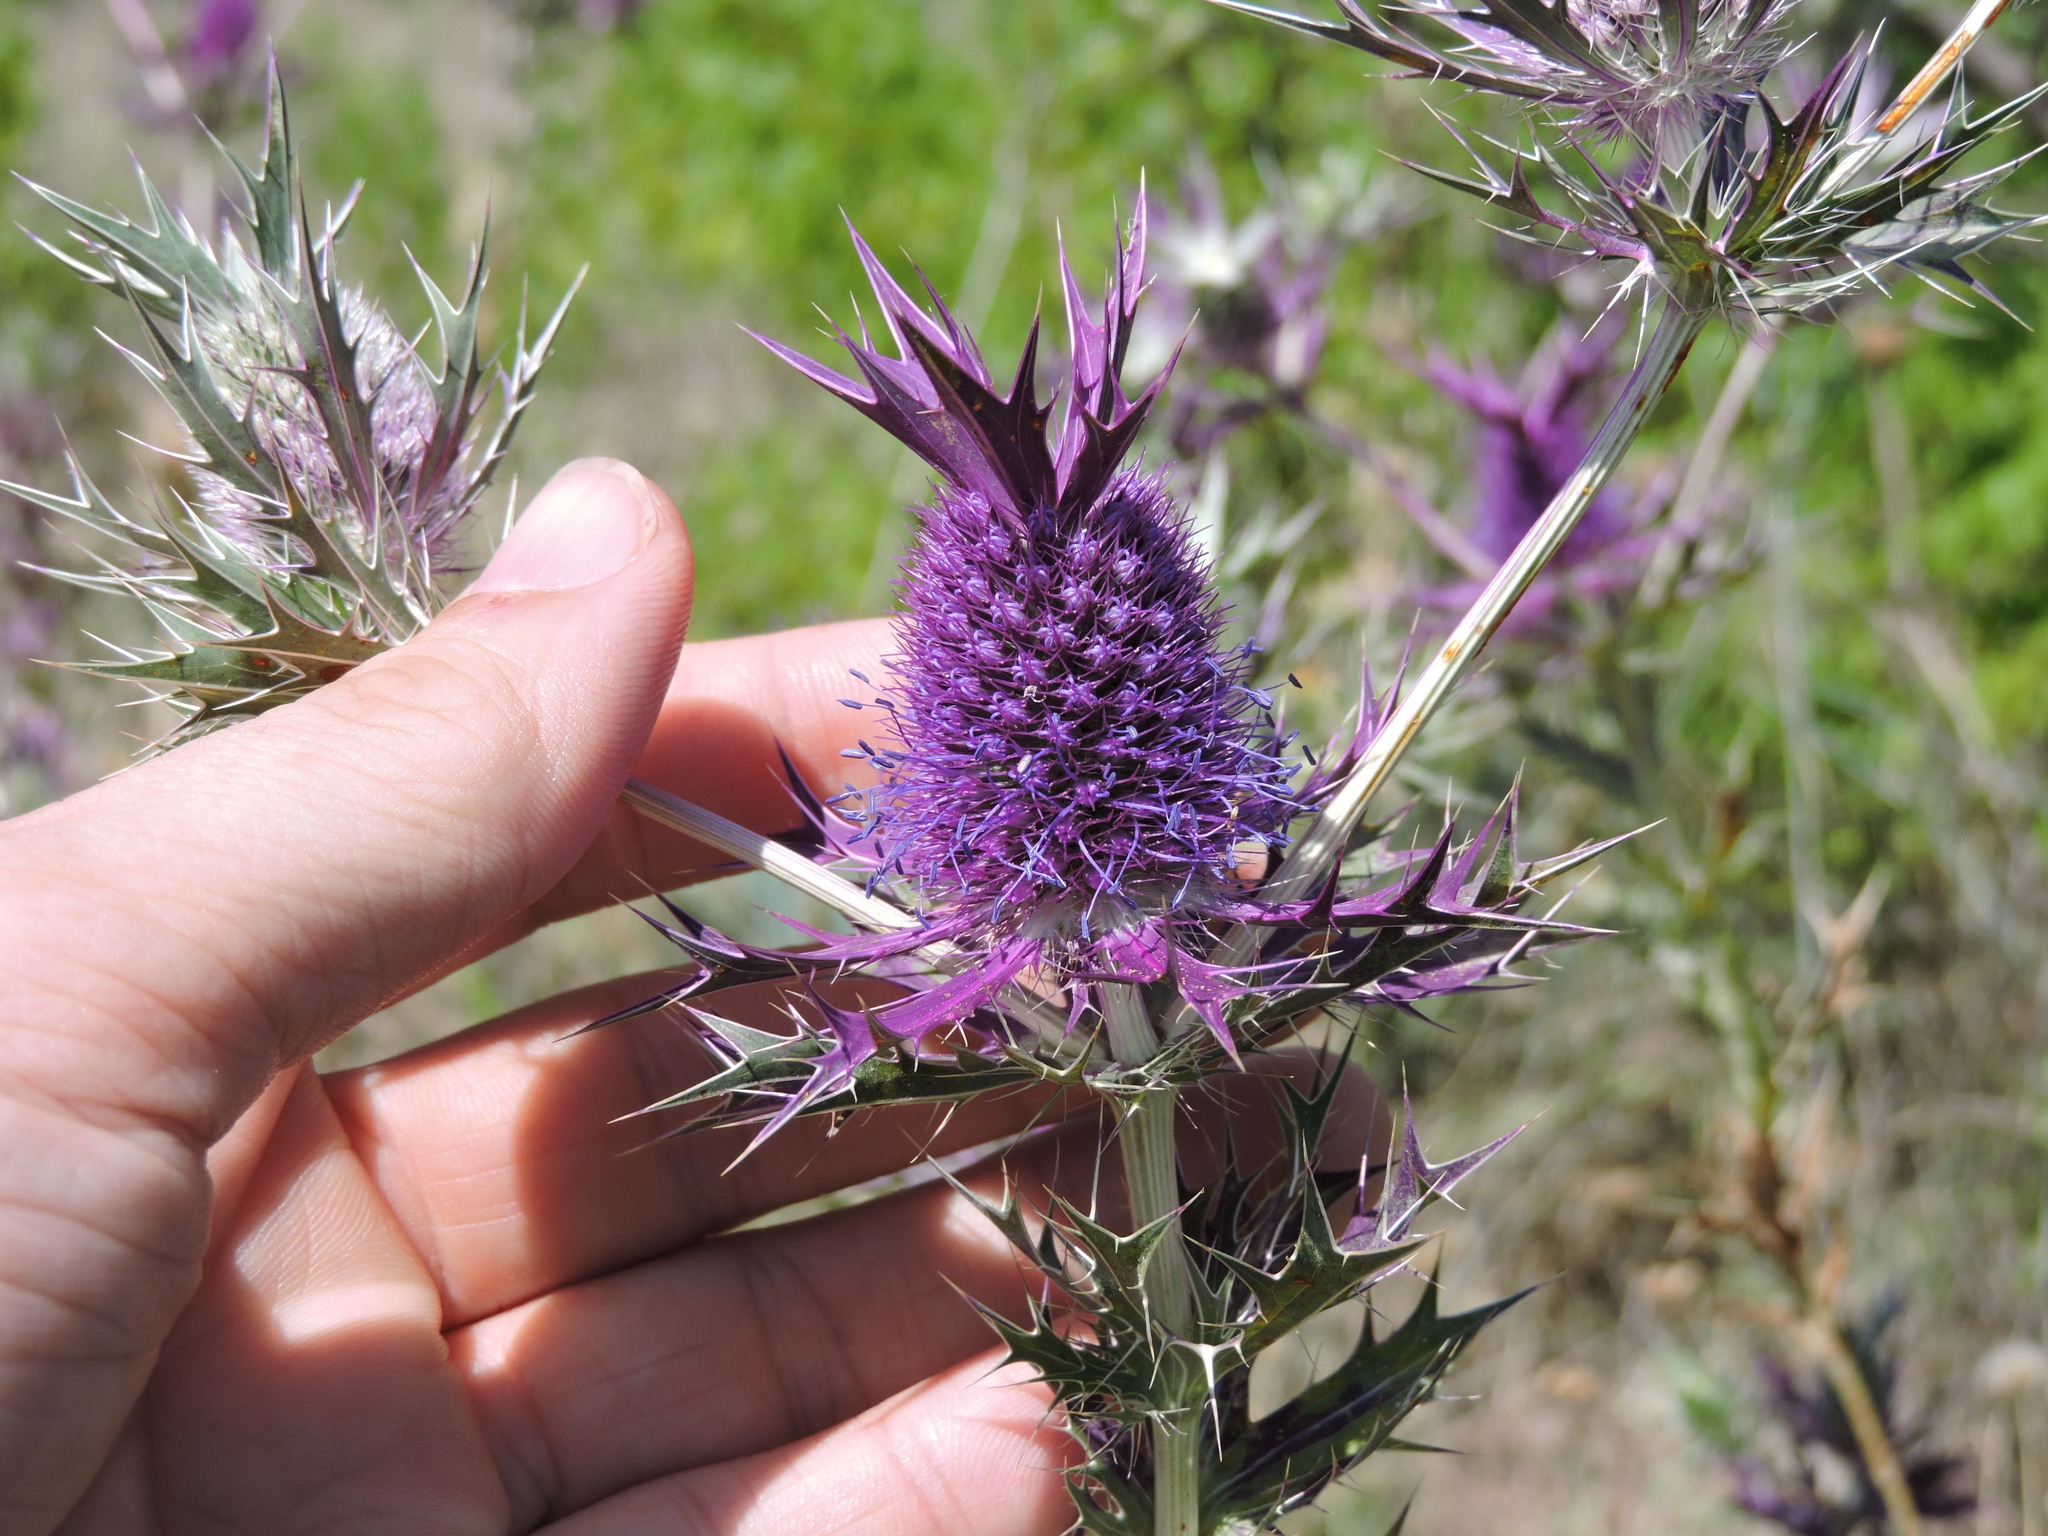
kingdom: Plantae
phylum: Tracheophyta
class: Magnoliopsida
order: Apiales
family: Apiaceae
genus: Eryngium
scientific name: Eryngium leavenworthii
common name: Leavenworth's eryngo
